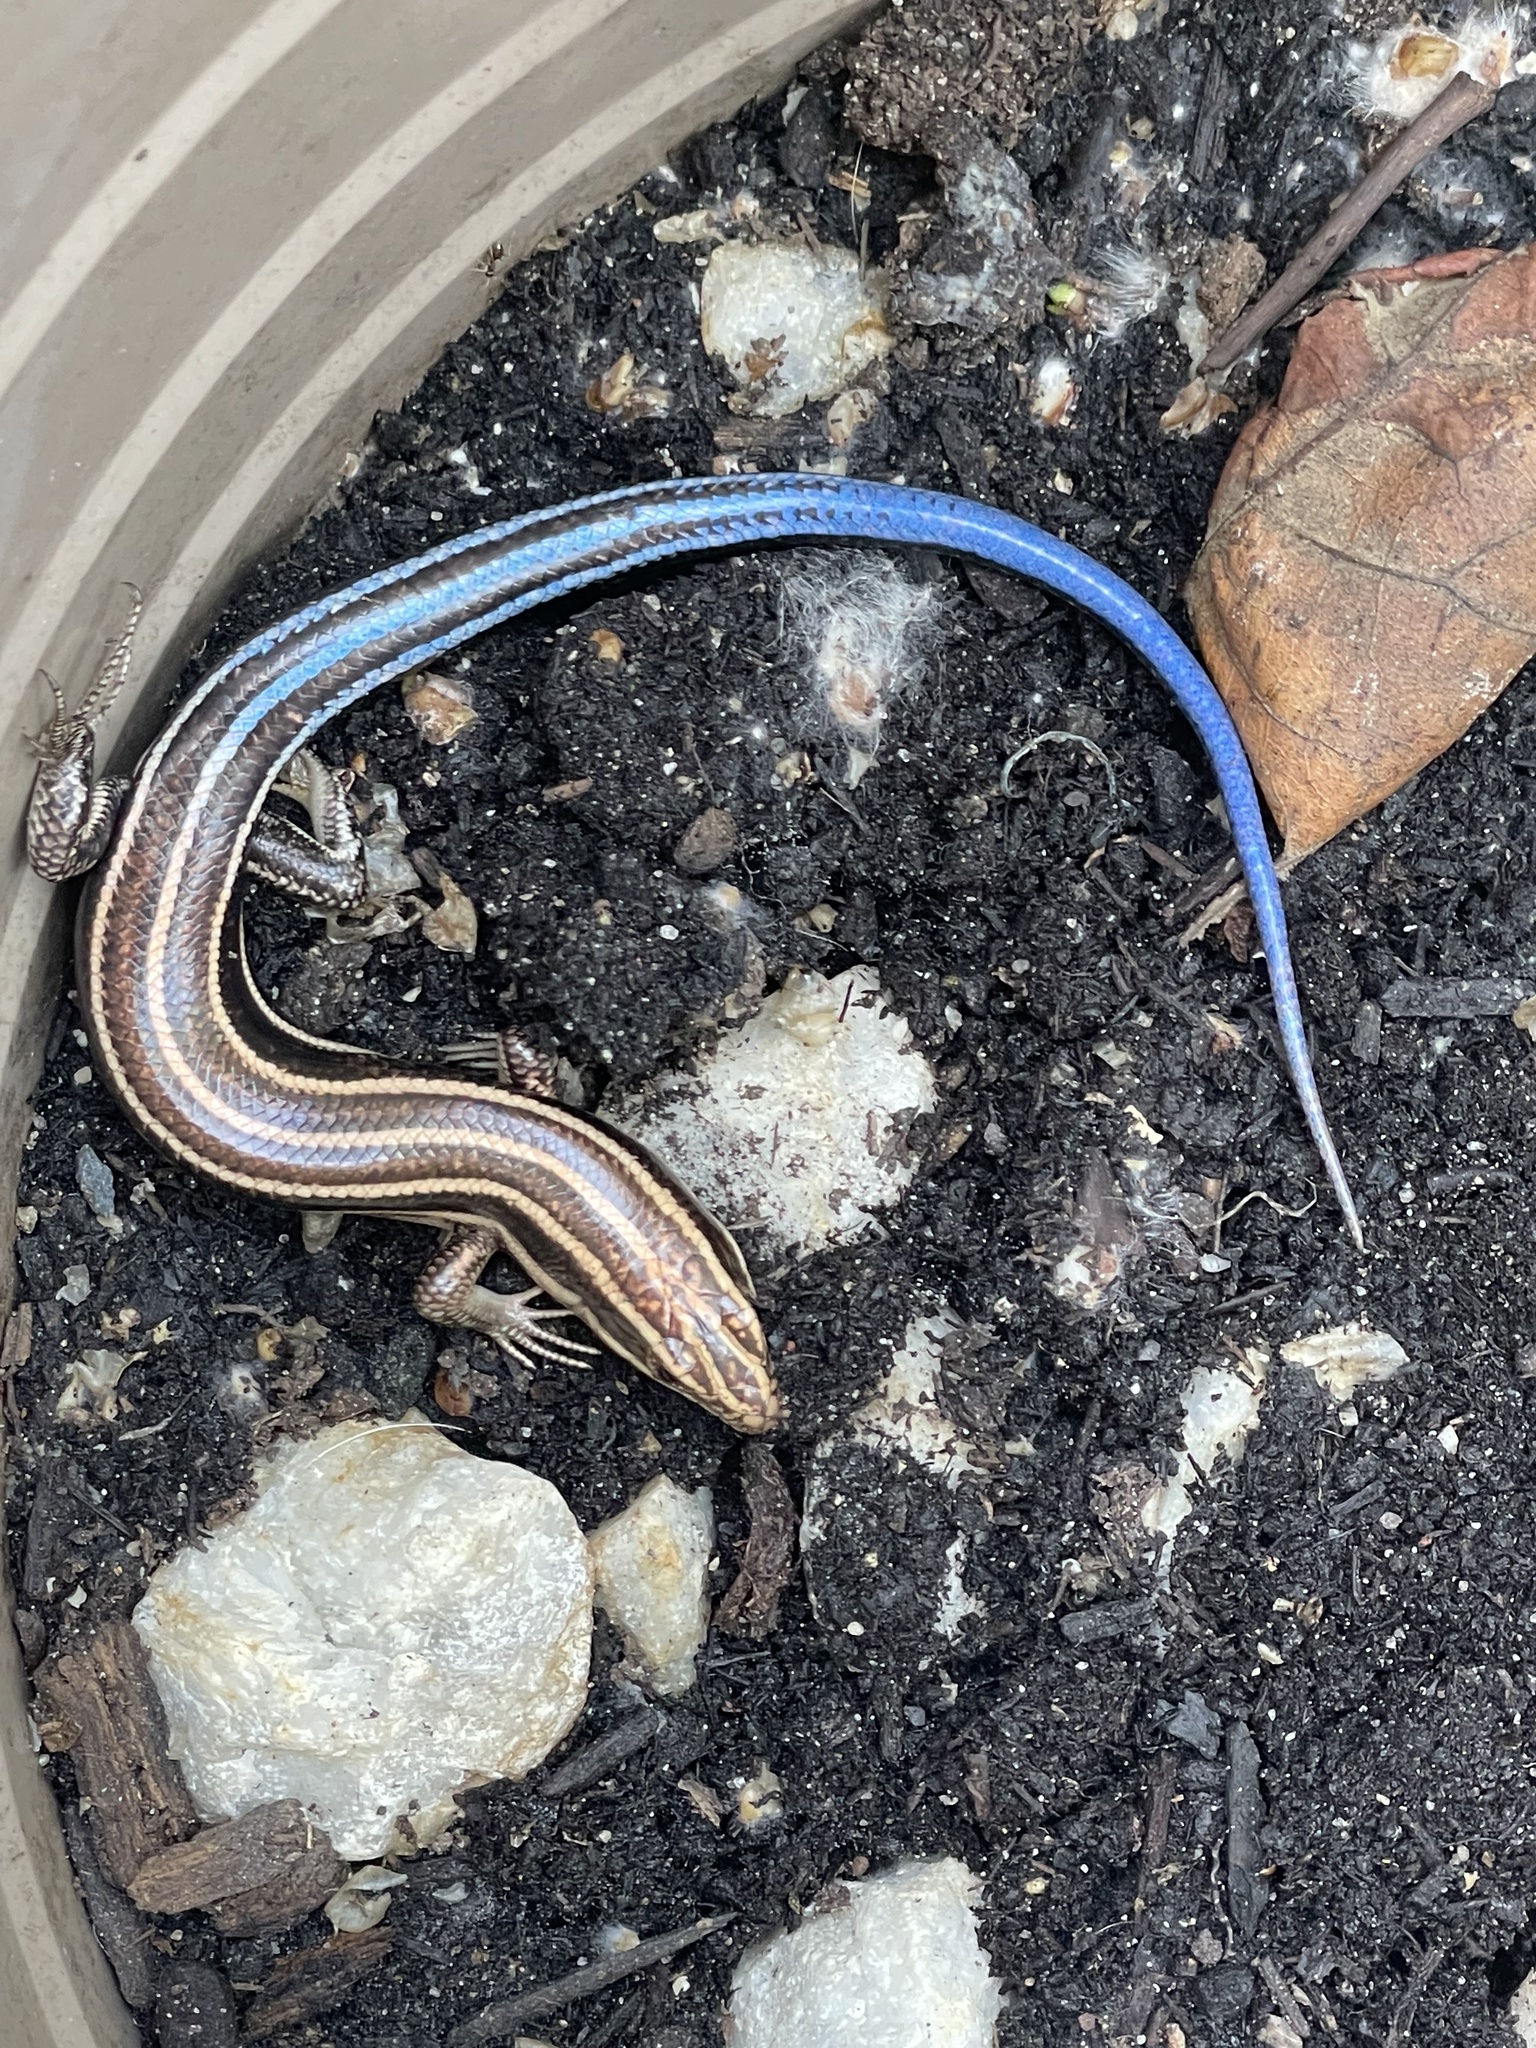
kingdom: Animalia
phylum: Chordata
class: Squamata
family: Scincidae
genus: Plestiodon
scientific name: Plestiodon fasciatus
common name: Five-lined skink
